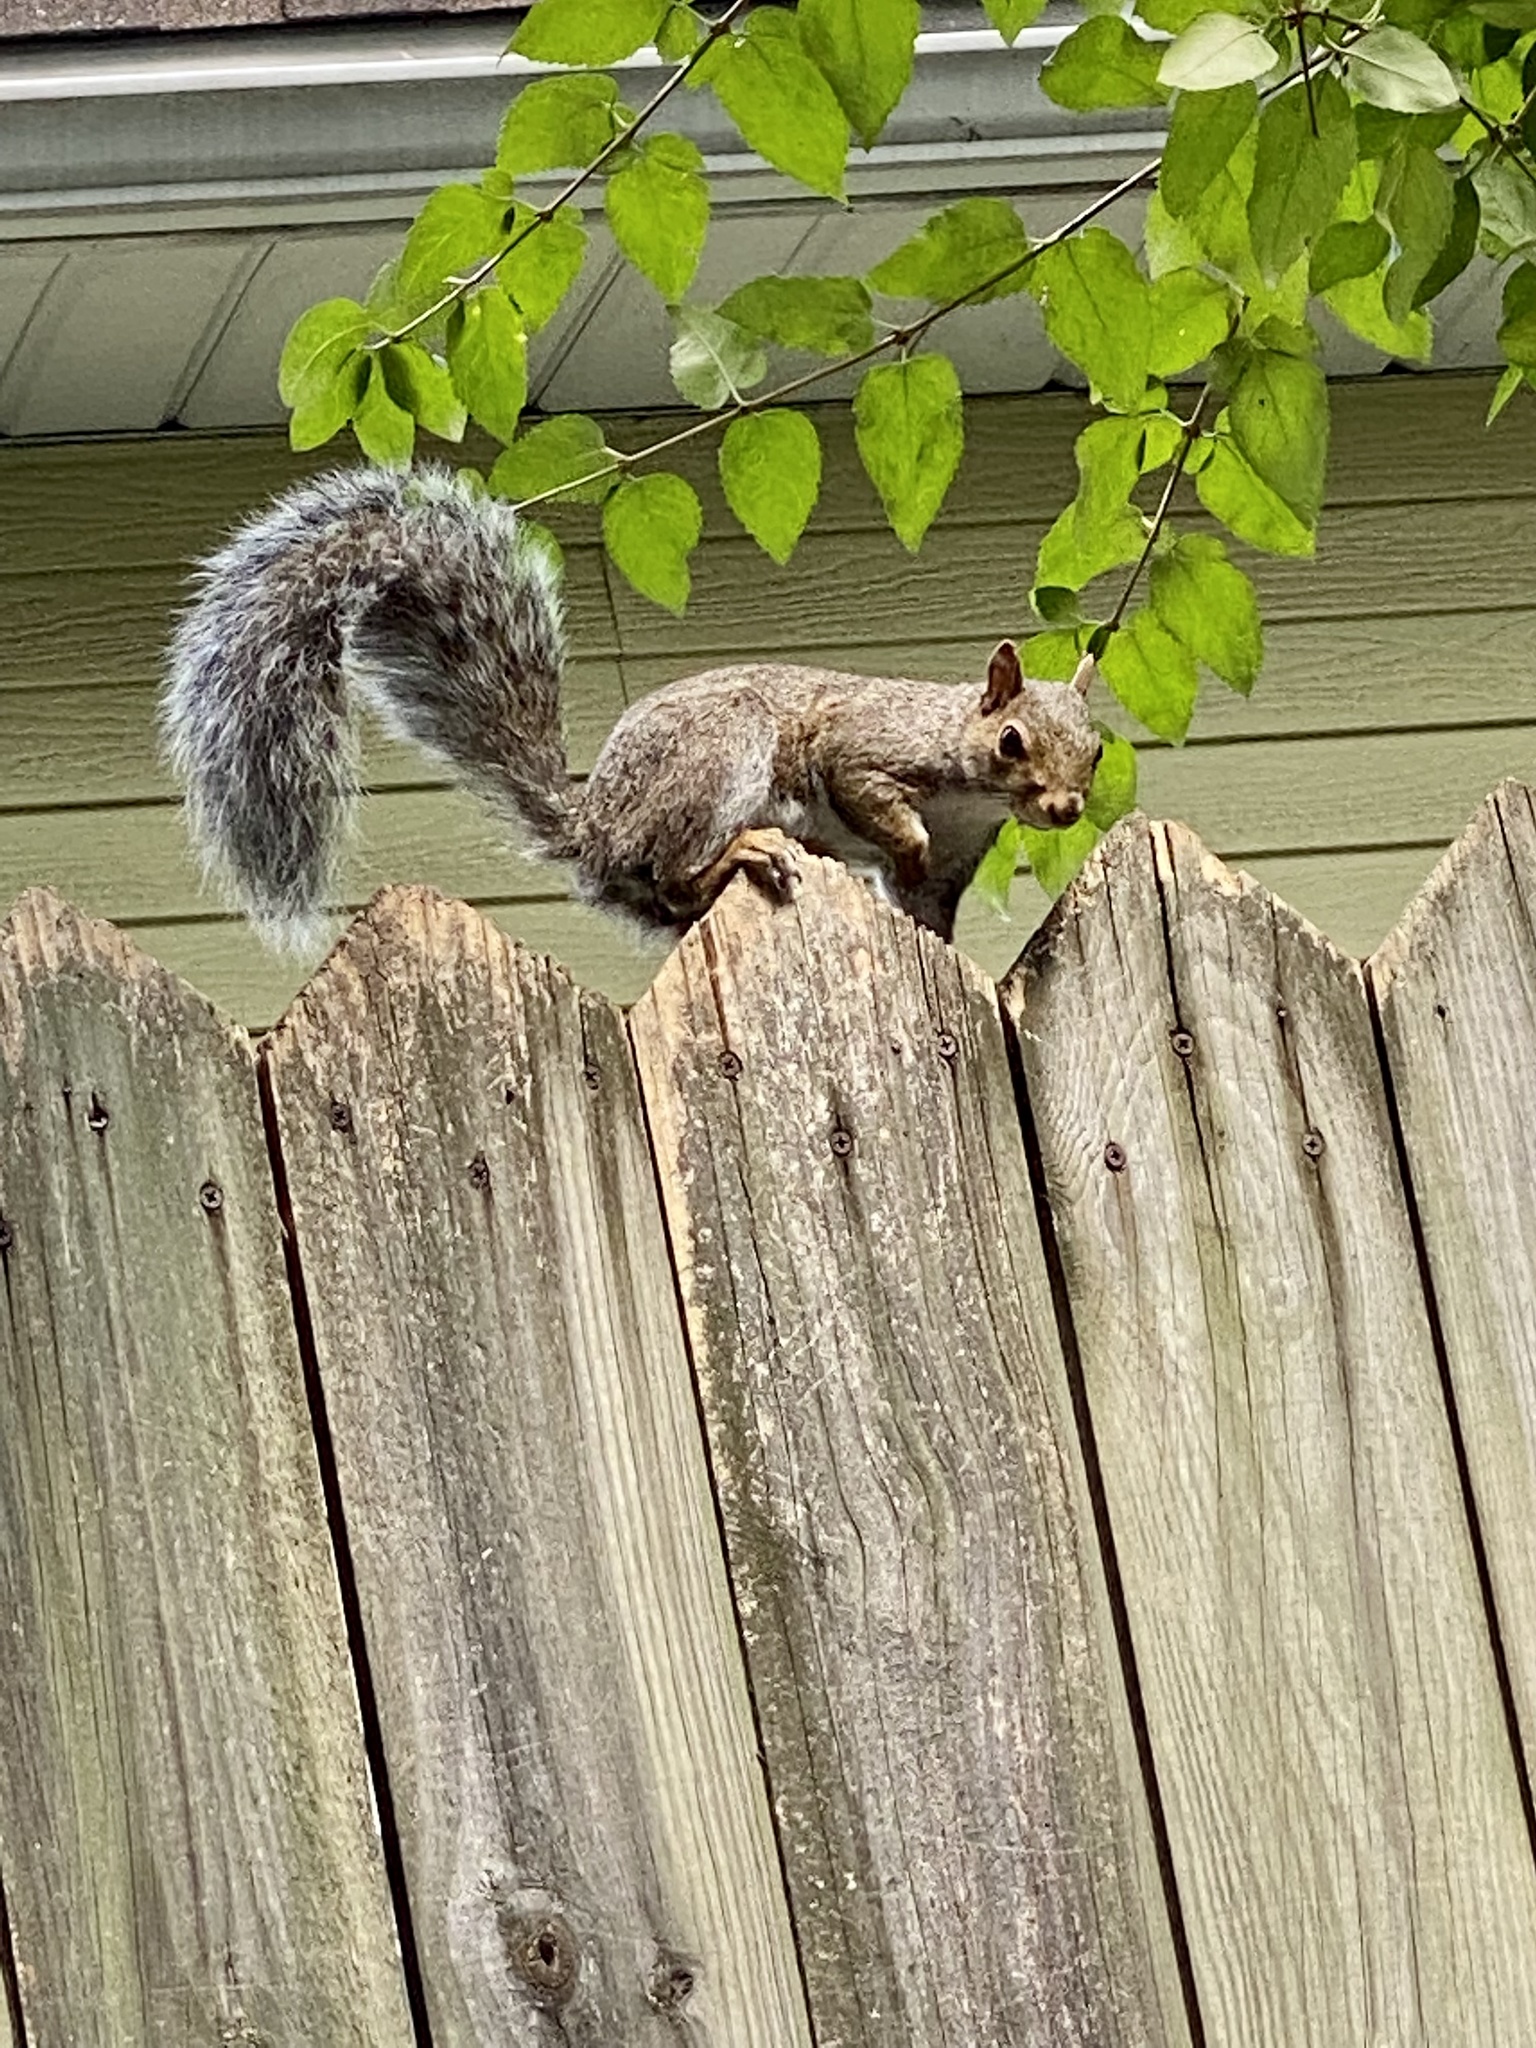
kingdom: Animalia
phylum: Chordata
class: Mammalia
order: Rodentia
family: Sciuridae
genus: Sciurus
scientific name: Sciurus carolinensis
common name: Eastern gray squirrel
